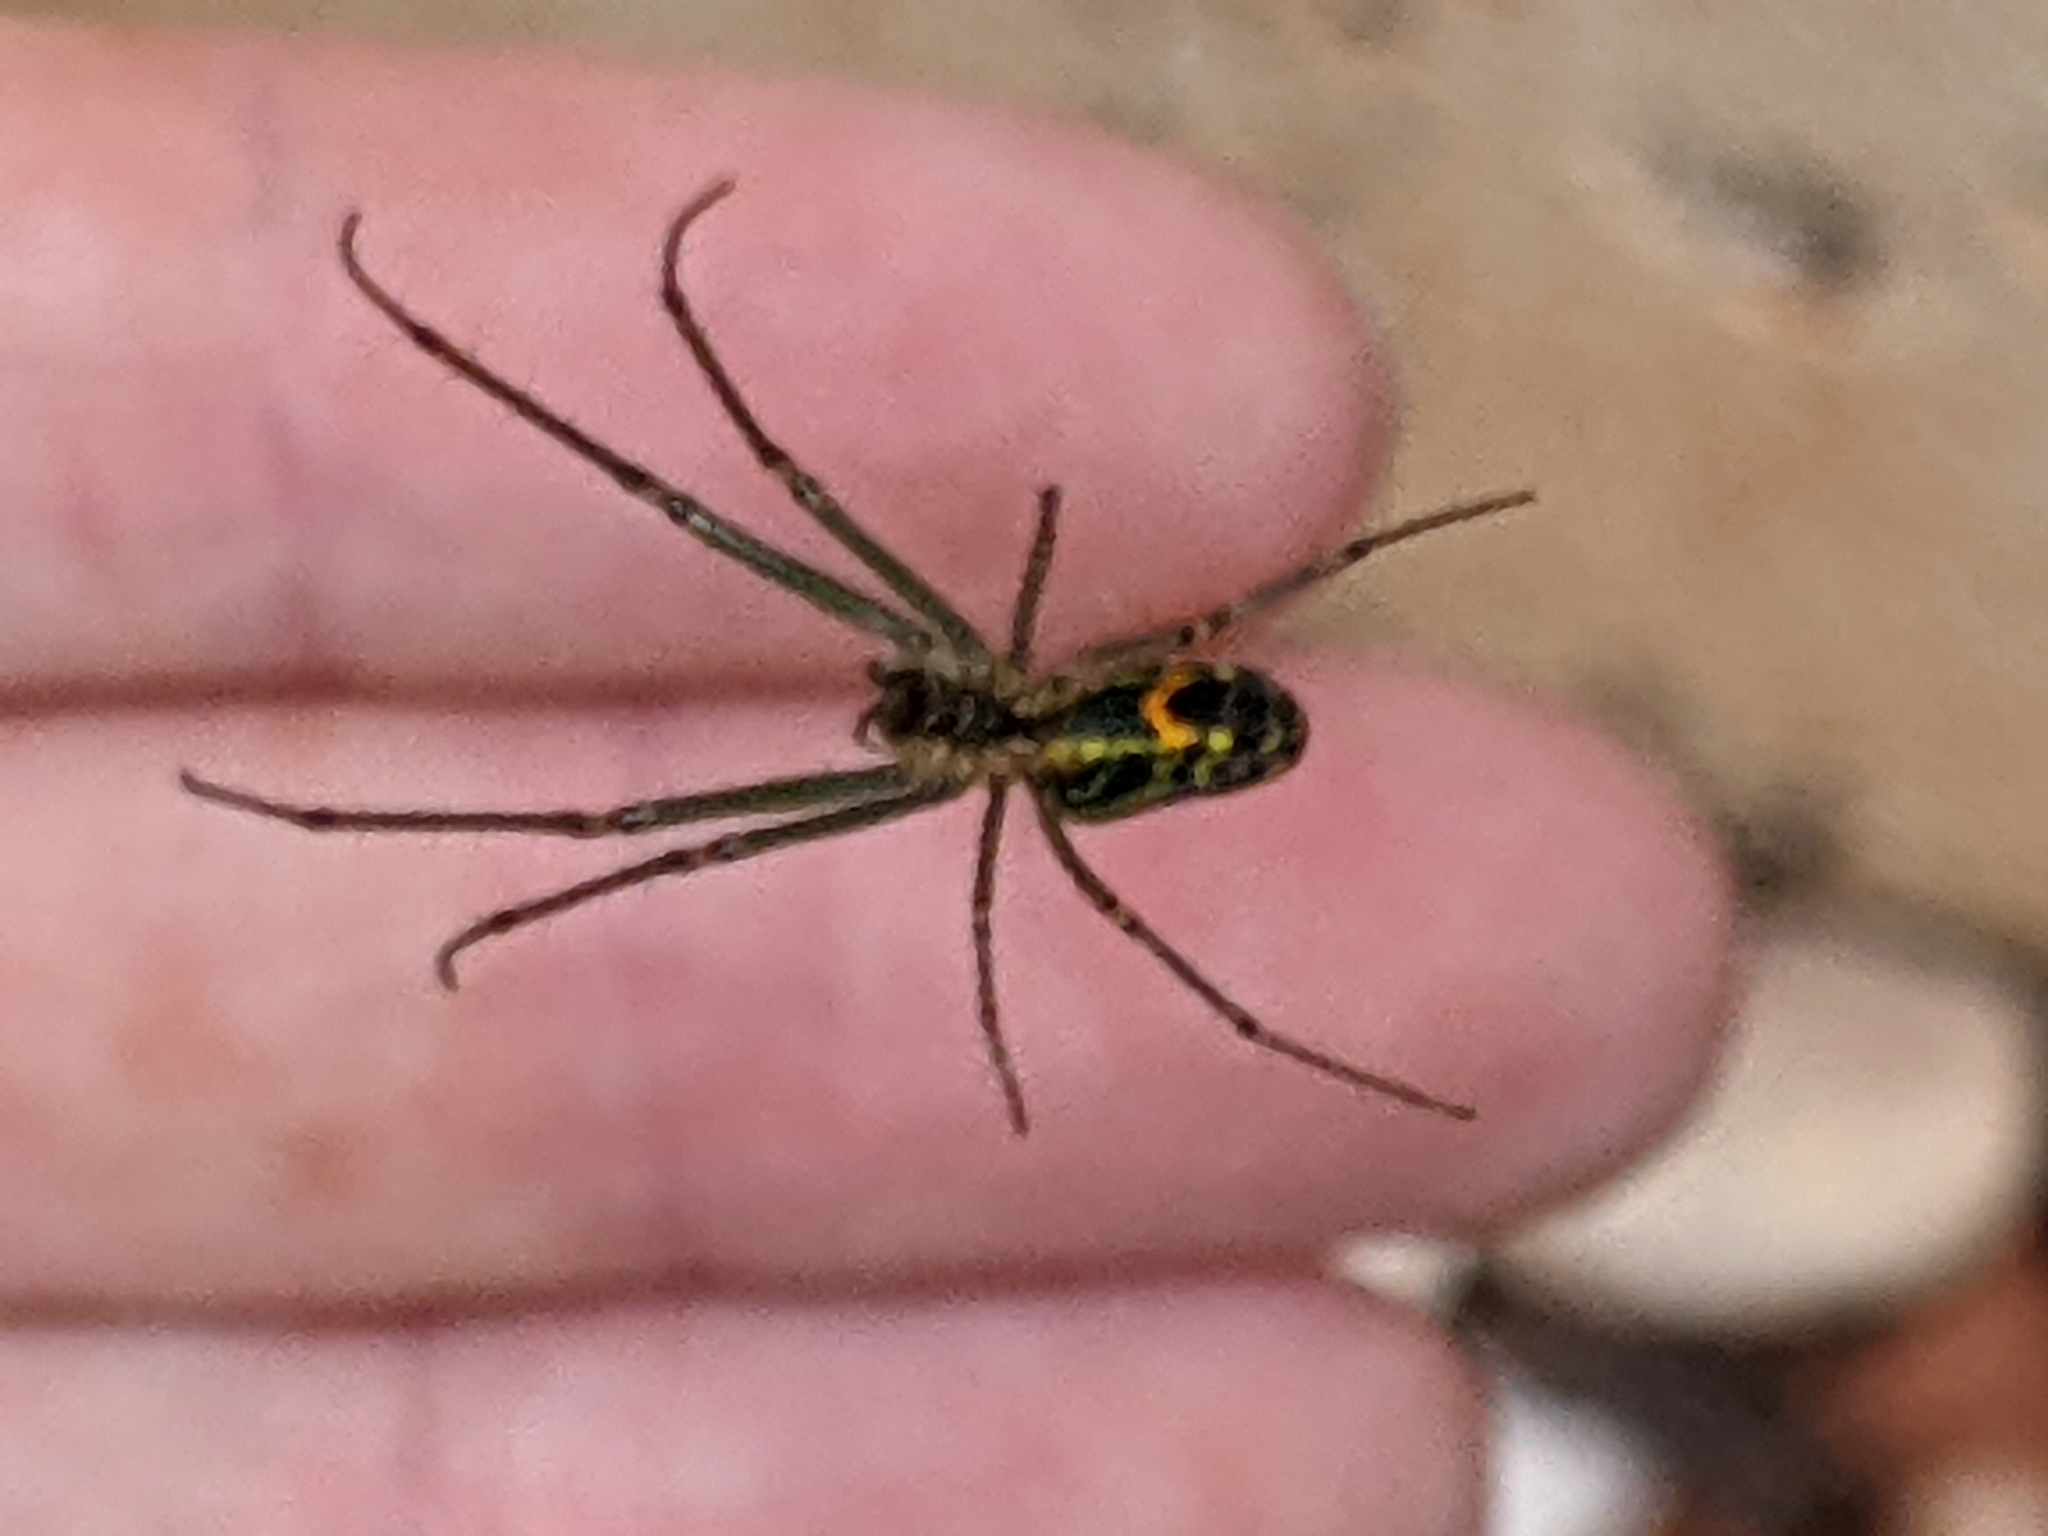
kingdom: Animalia
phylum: Arthropoda
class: Arachnida
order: Araneae
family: Tetragnathidae
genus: Leucauge
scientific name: Leucauge venusta
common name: Longjawed orb weavers
